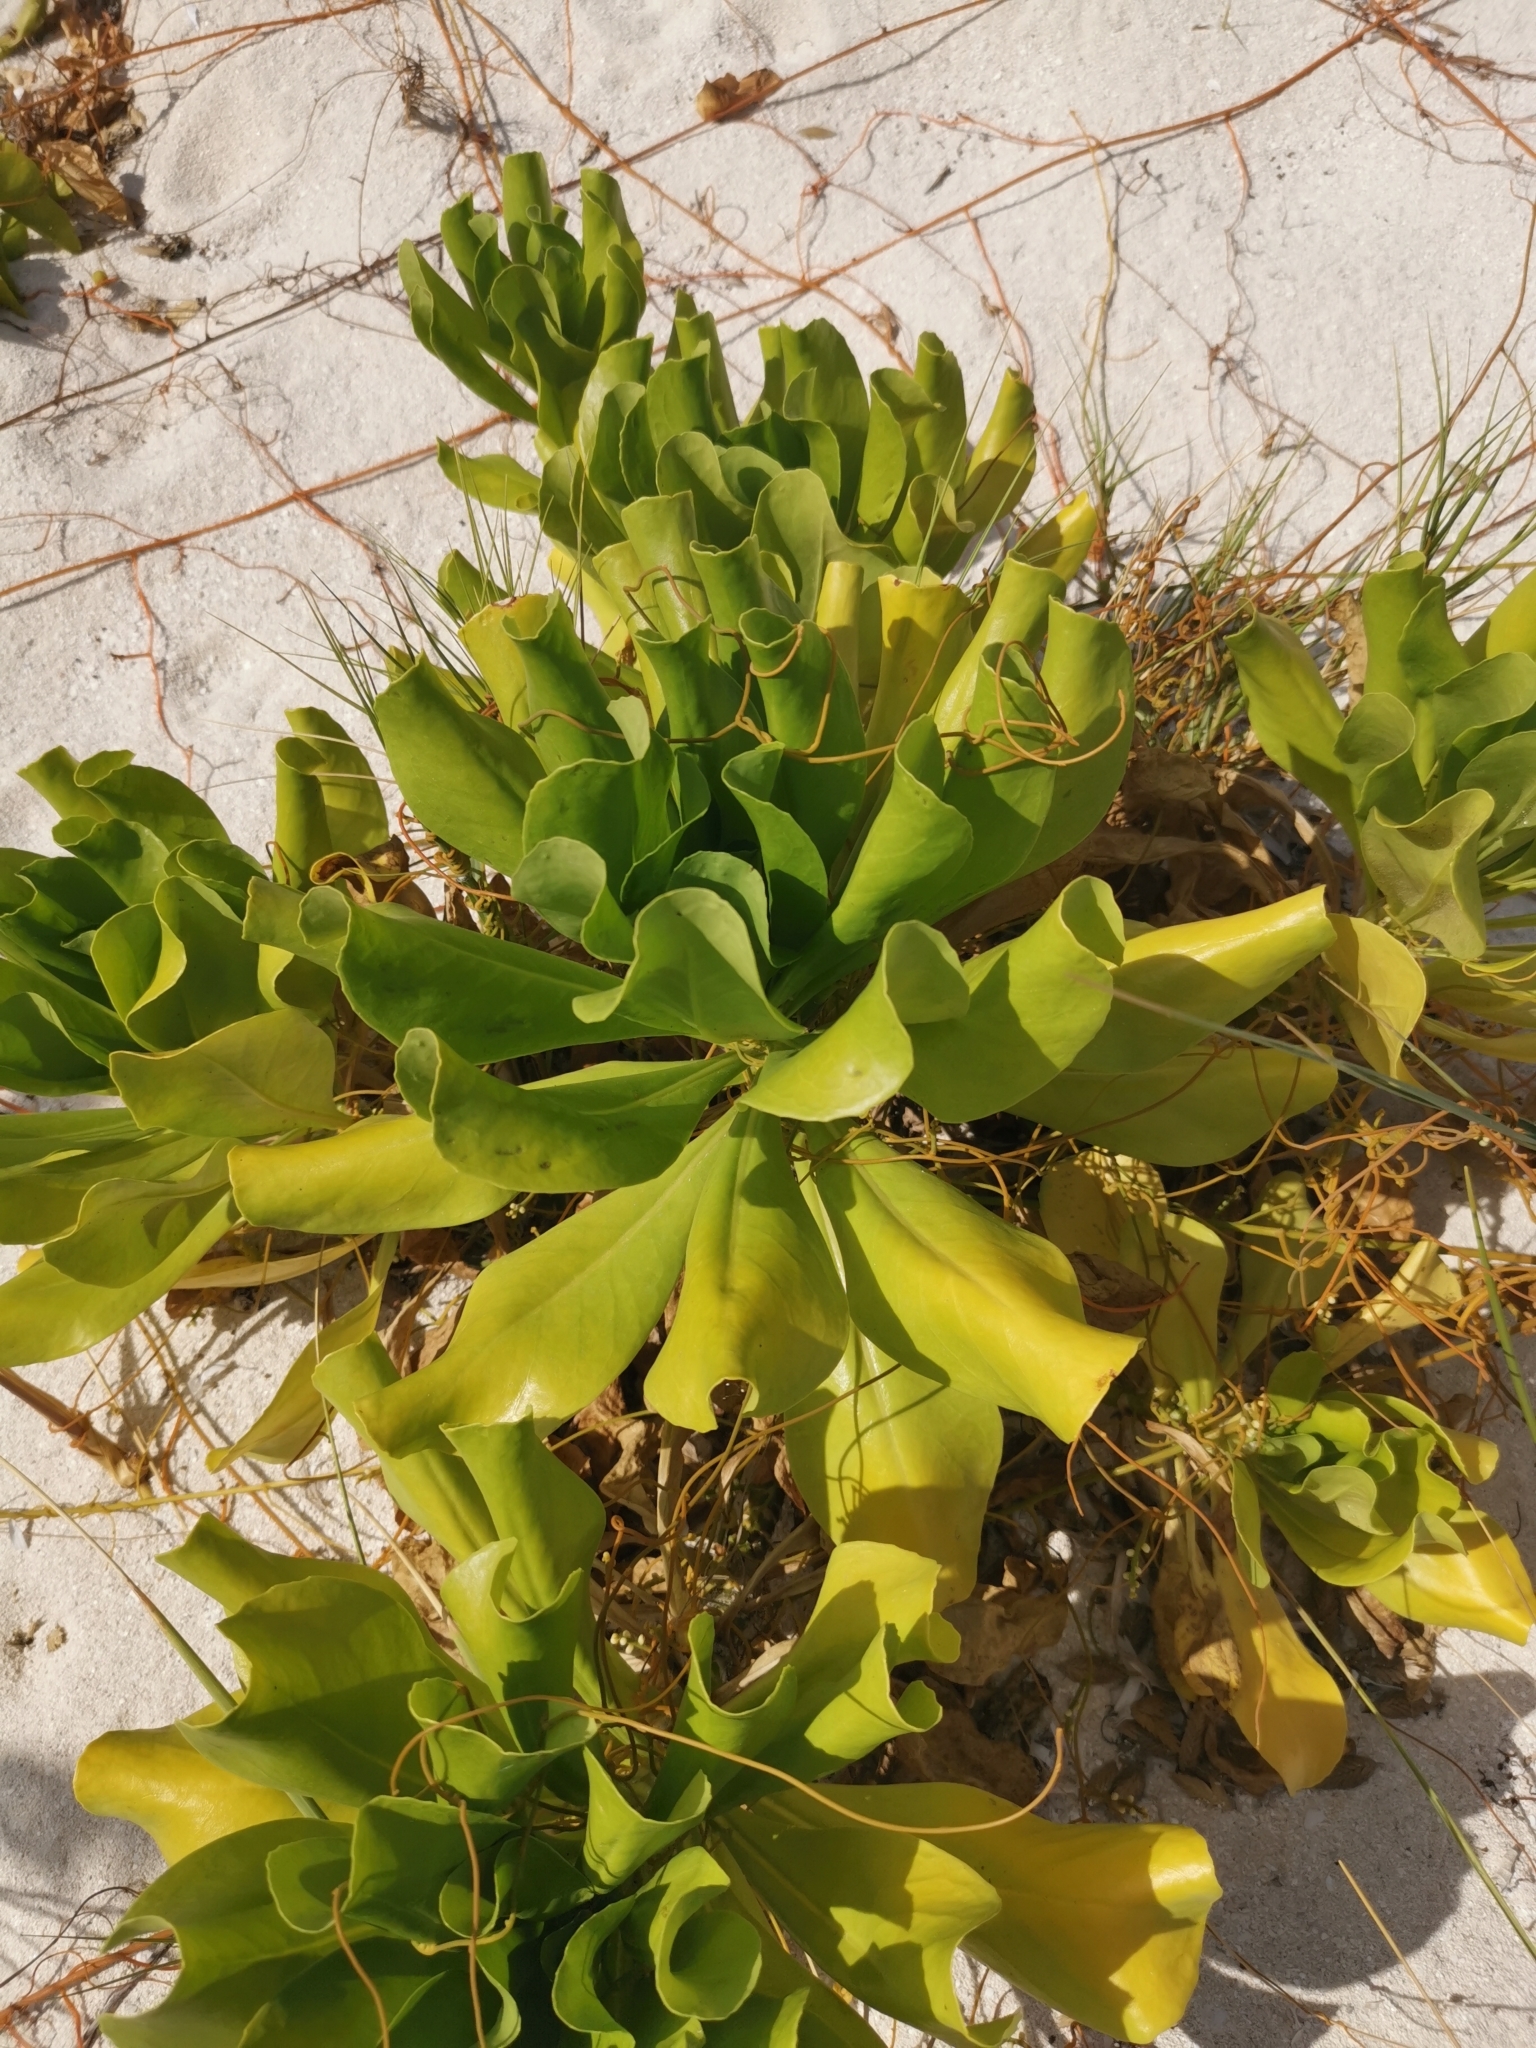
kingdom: Plantae
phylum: Tracheophyta
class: Magnoliopsida
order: Asterales
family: Goodeniaceae
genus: Scaevola
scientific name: Scaevola taccada
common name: Sea lettucetree
